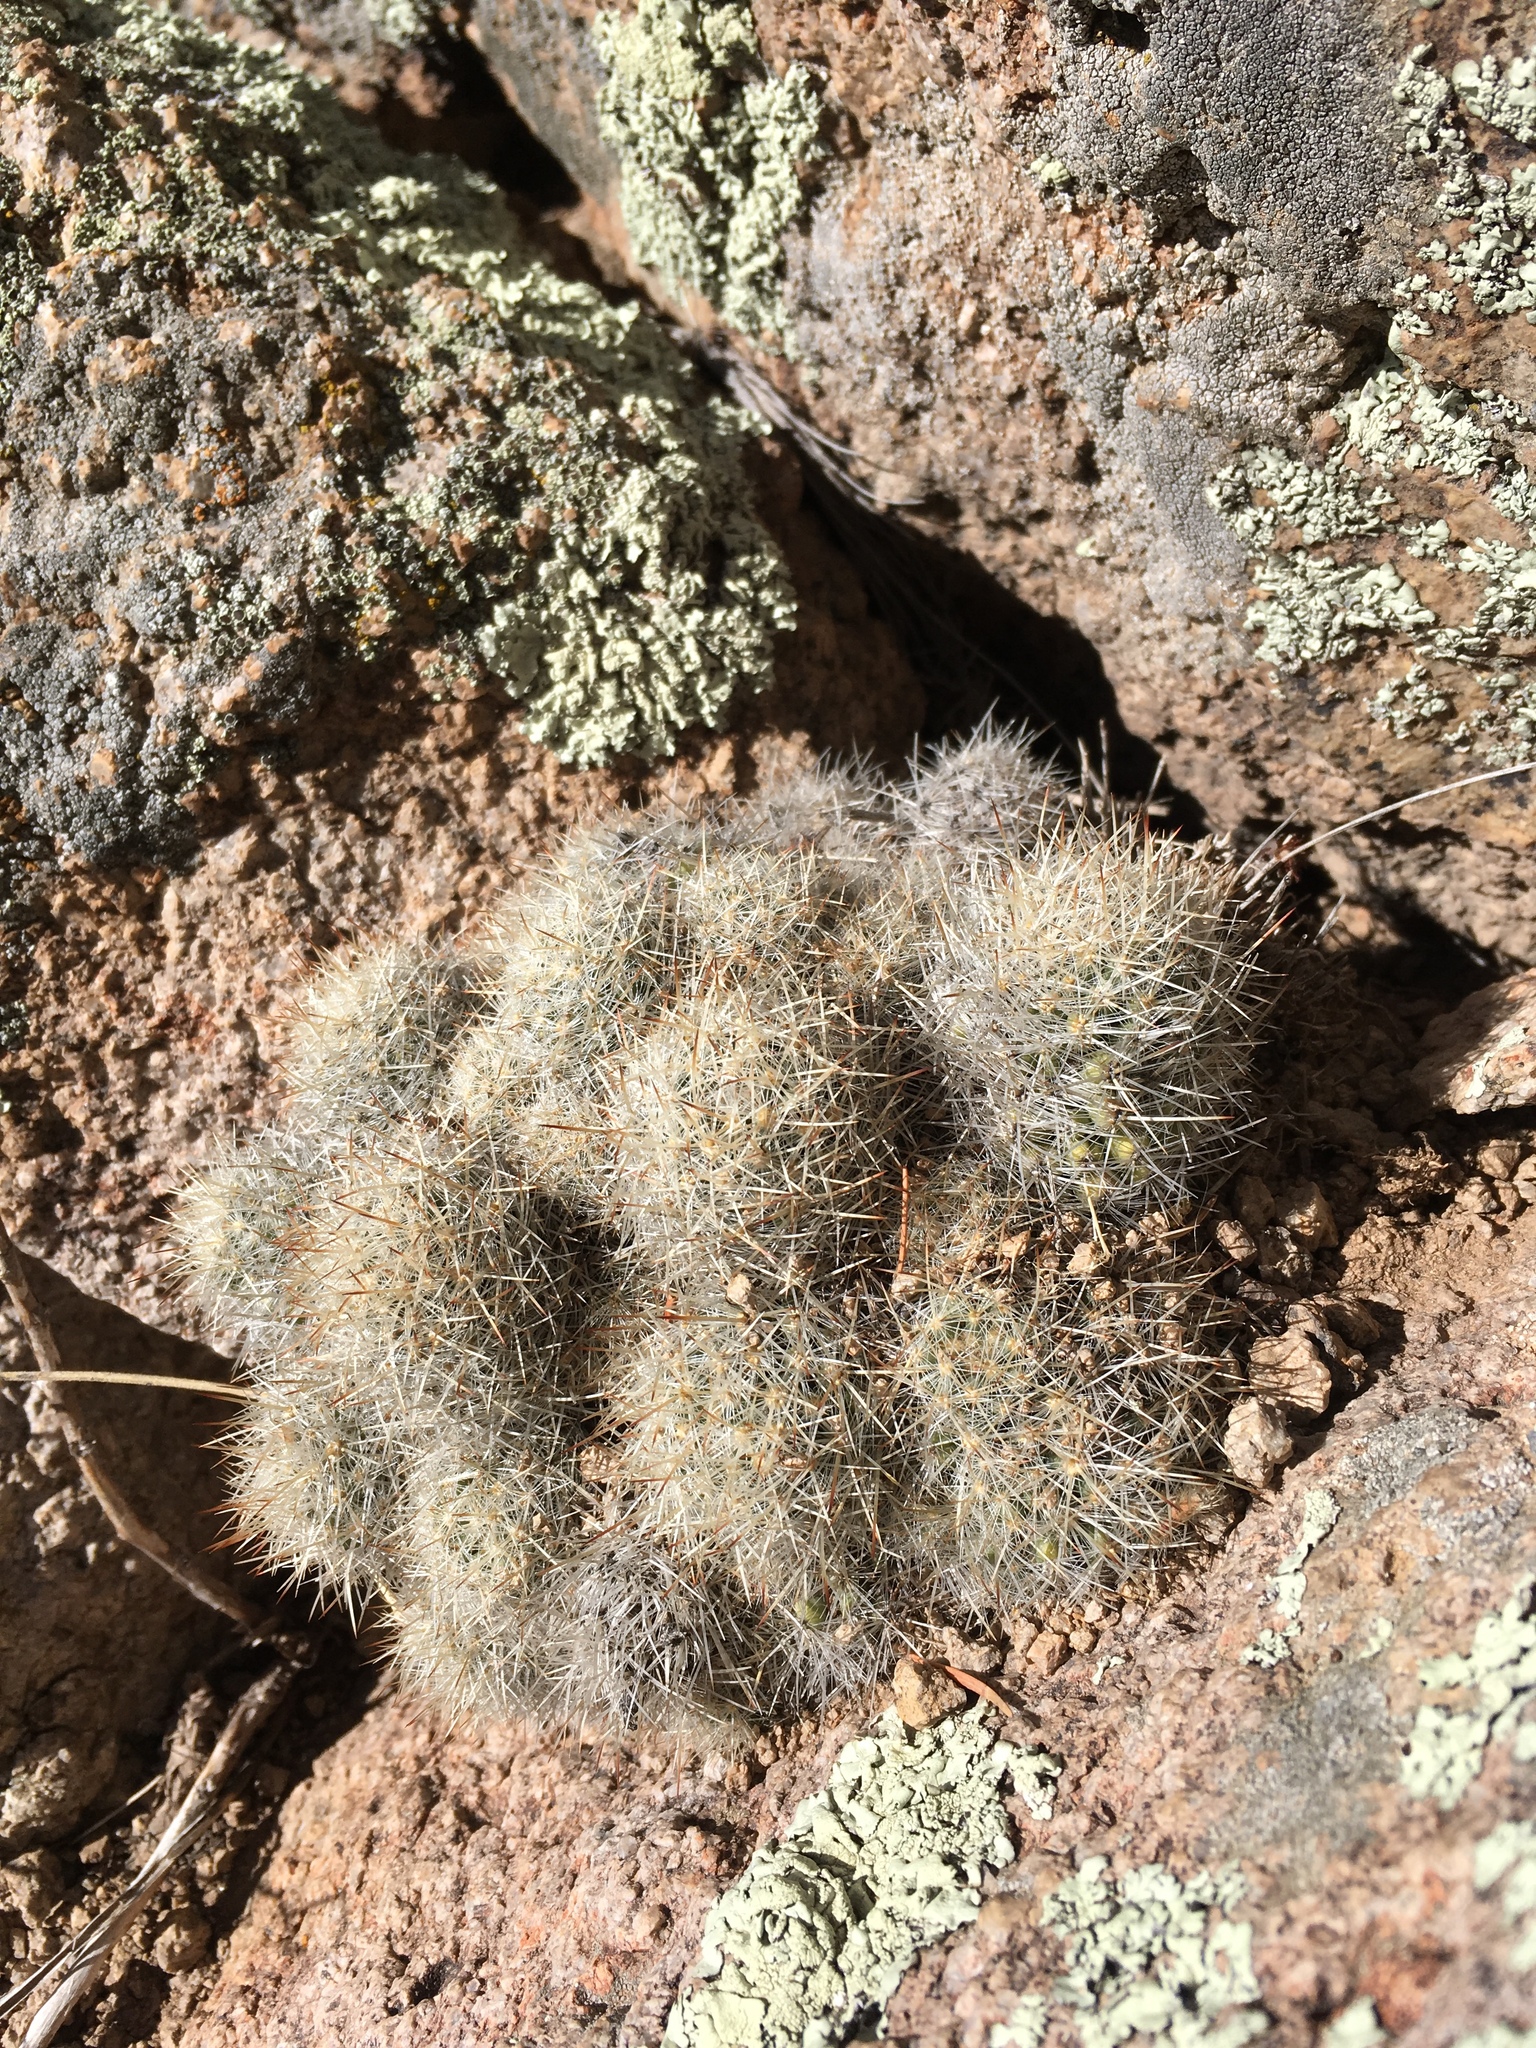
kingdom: Plantae
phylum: Tracheophyta
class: Magnoliopsida
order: Caryophyllales
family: Cactaceae
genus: Pelecyphora
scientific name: Pelecyphora sneedii
